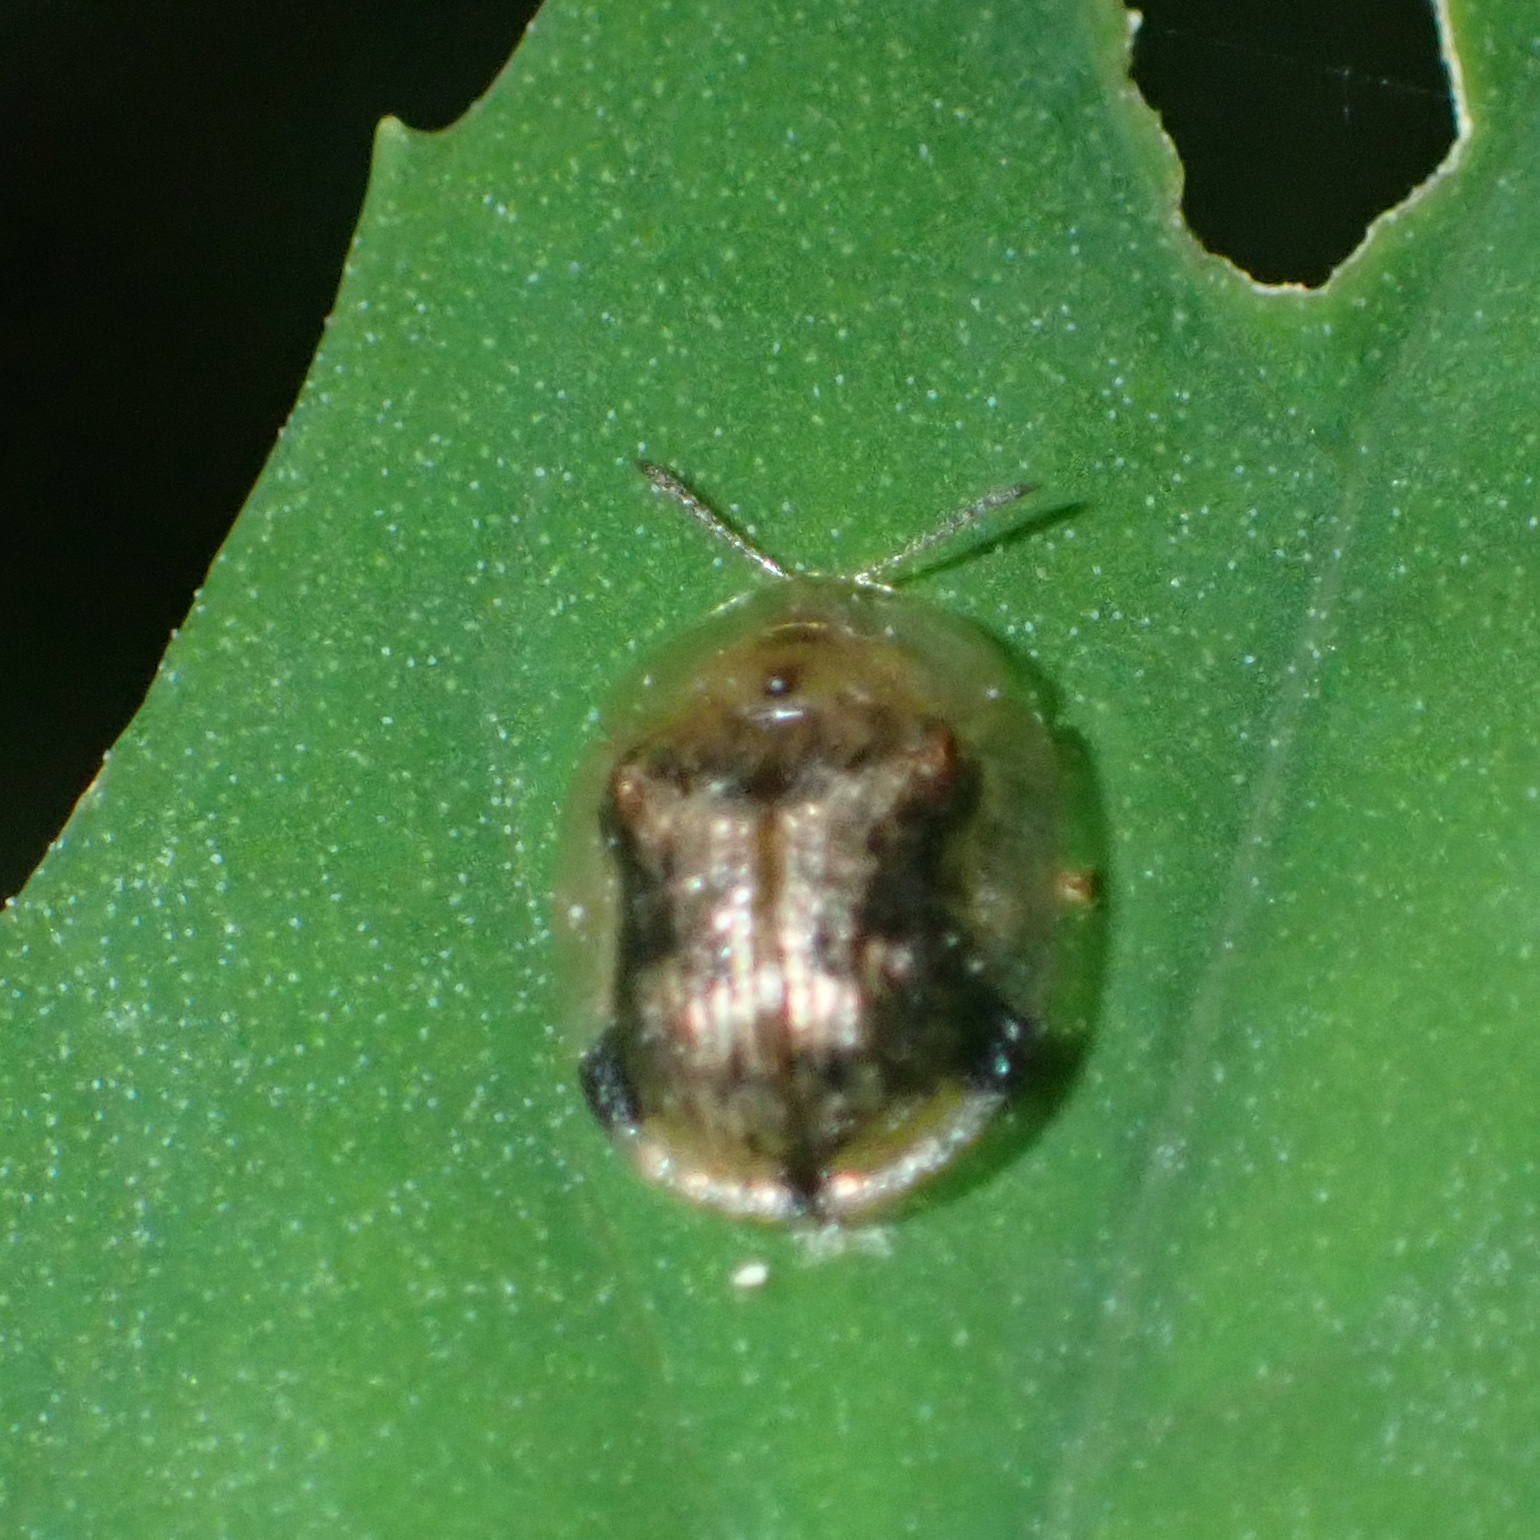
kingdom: Animalia
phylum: Arthropoda
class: Insecta
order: Coleoptera
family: Chrysomelidae
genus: Cassida
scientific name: Cassida piperata
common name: Small tortoise beetle
